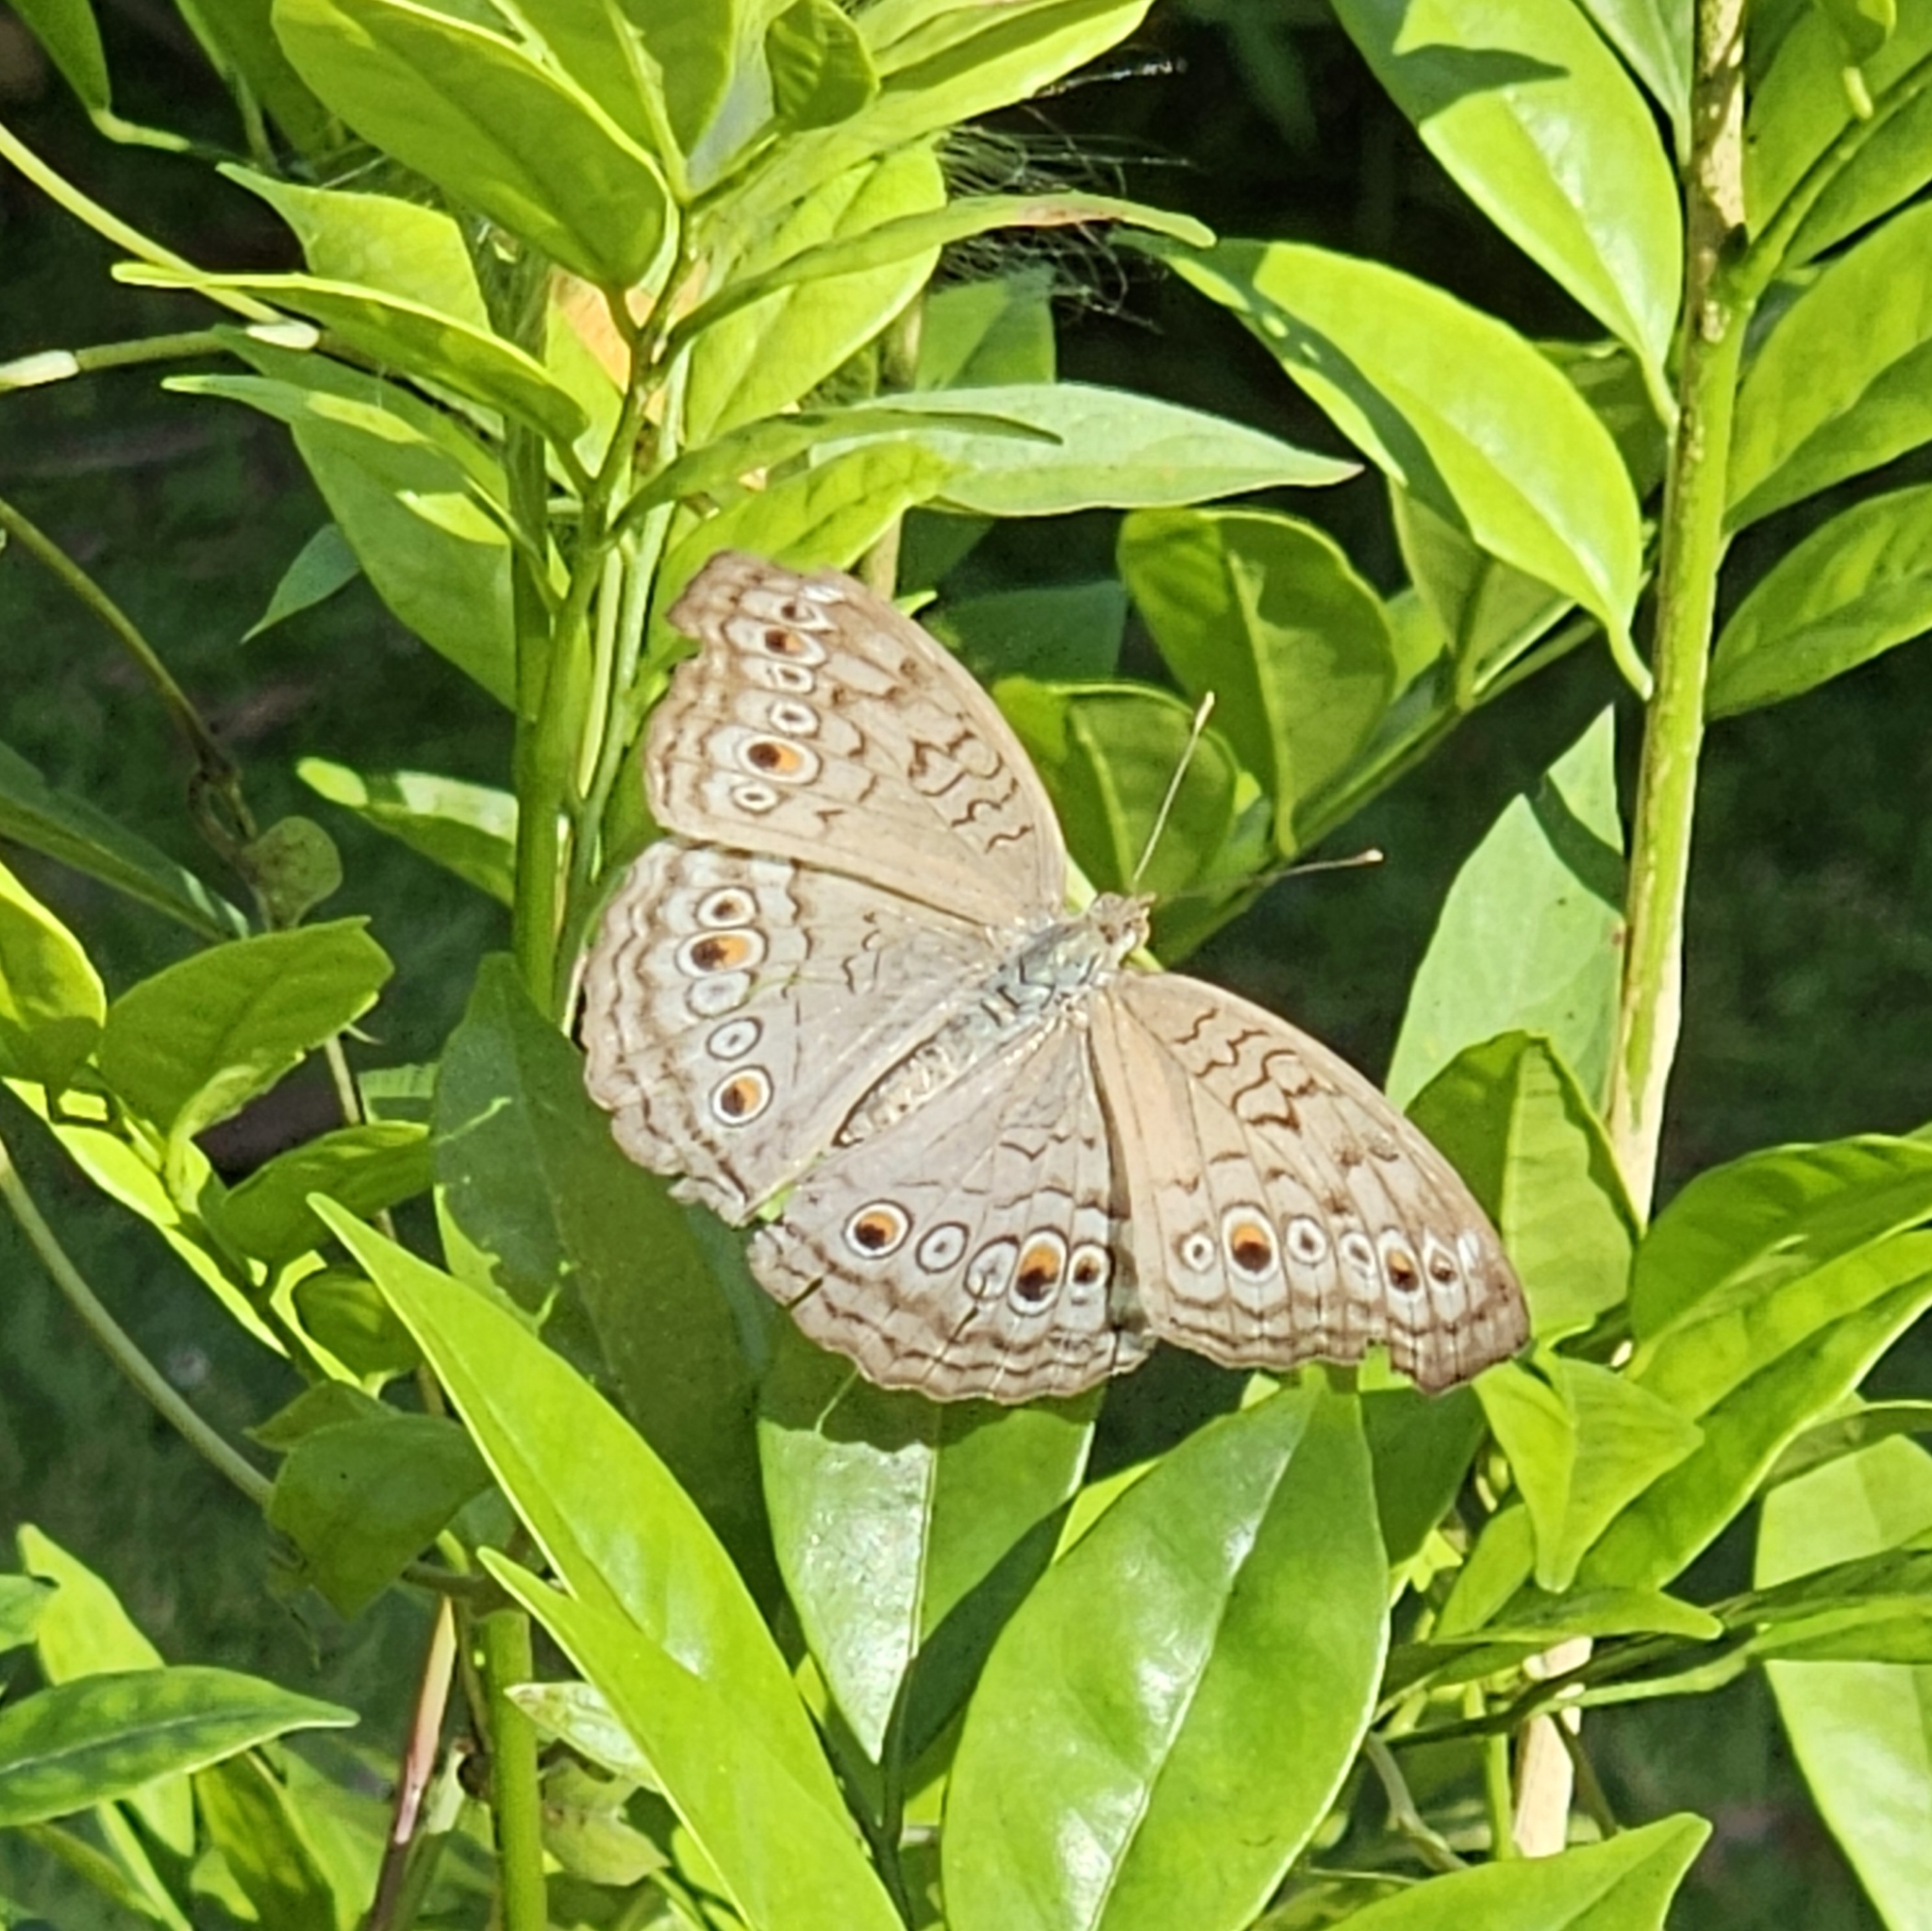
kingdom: Animalia
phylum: Arthropoda
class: Insecta
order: Lepidoptera
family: Nymphalidae
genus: Junonia
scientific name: Junonia atlites
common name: Grey pansy
